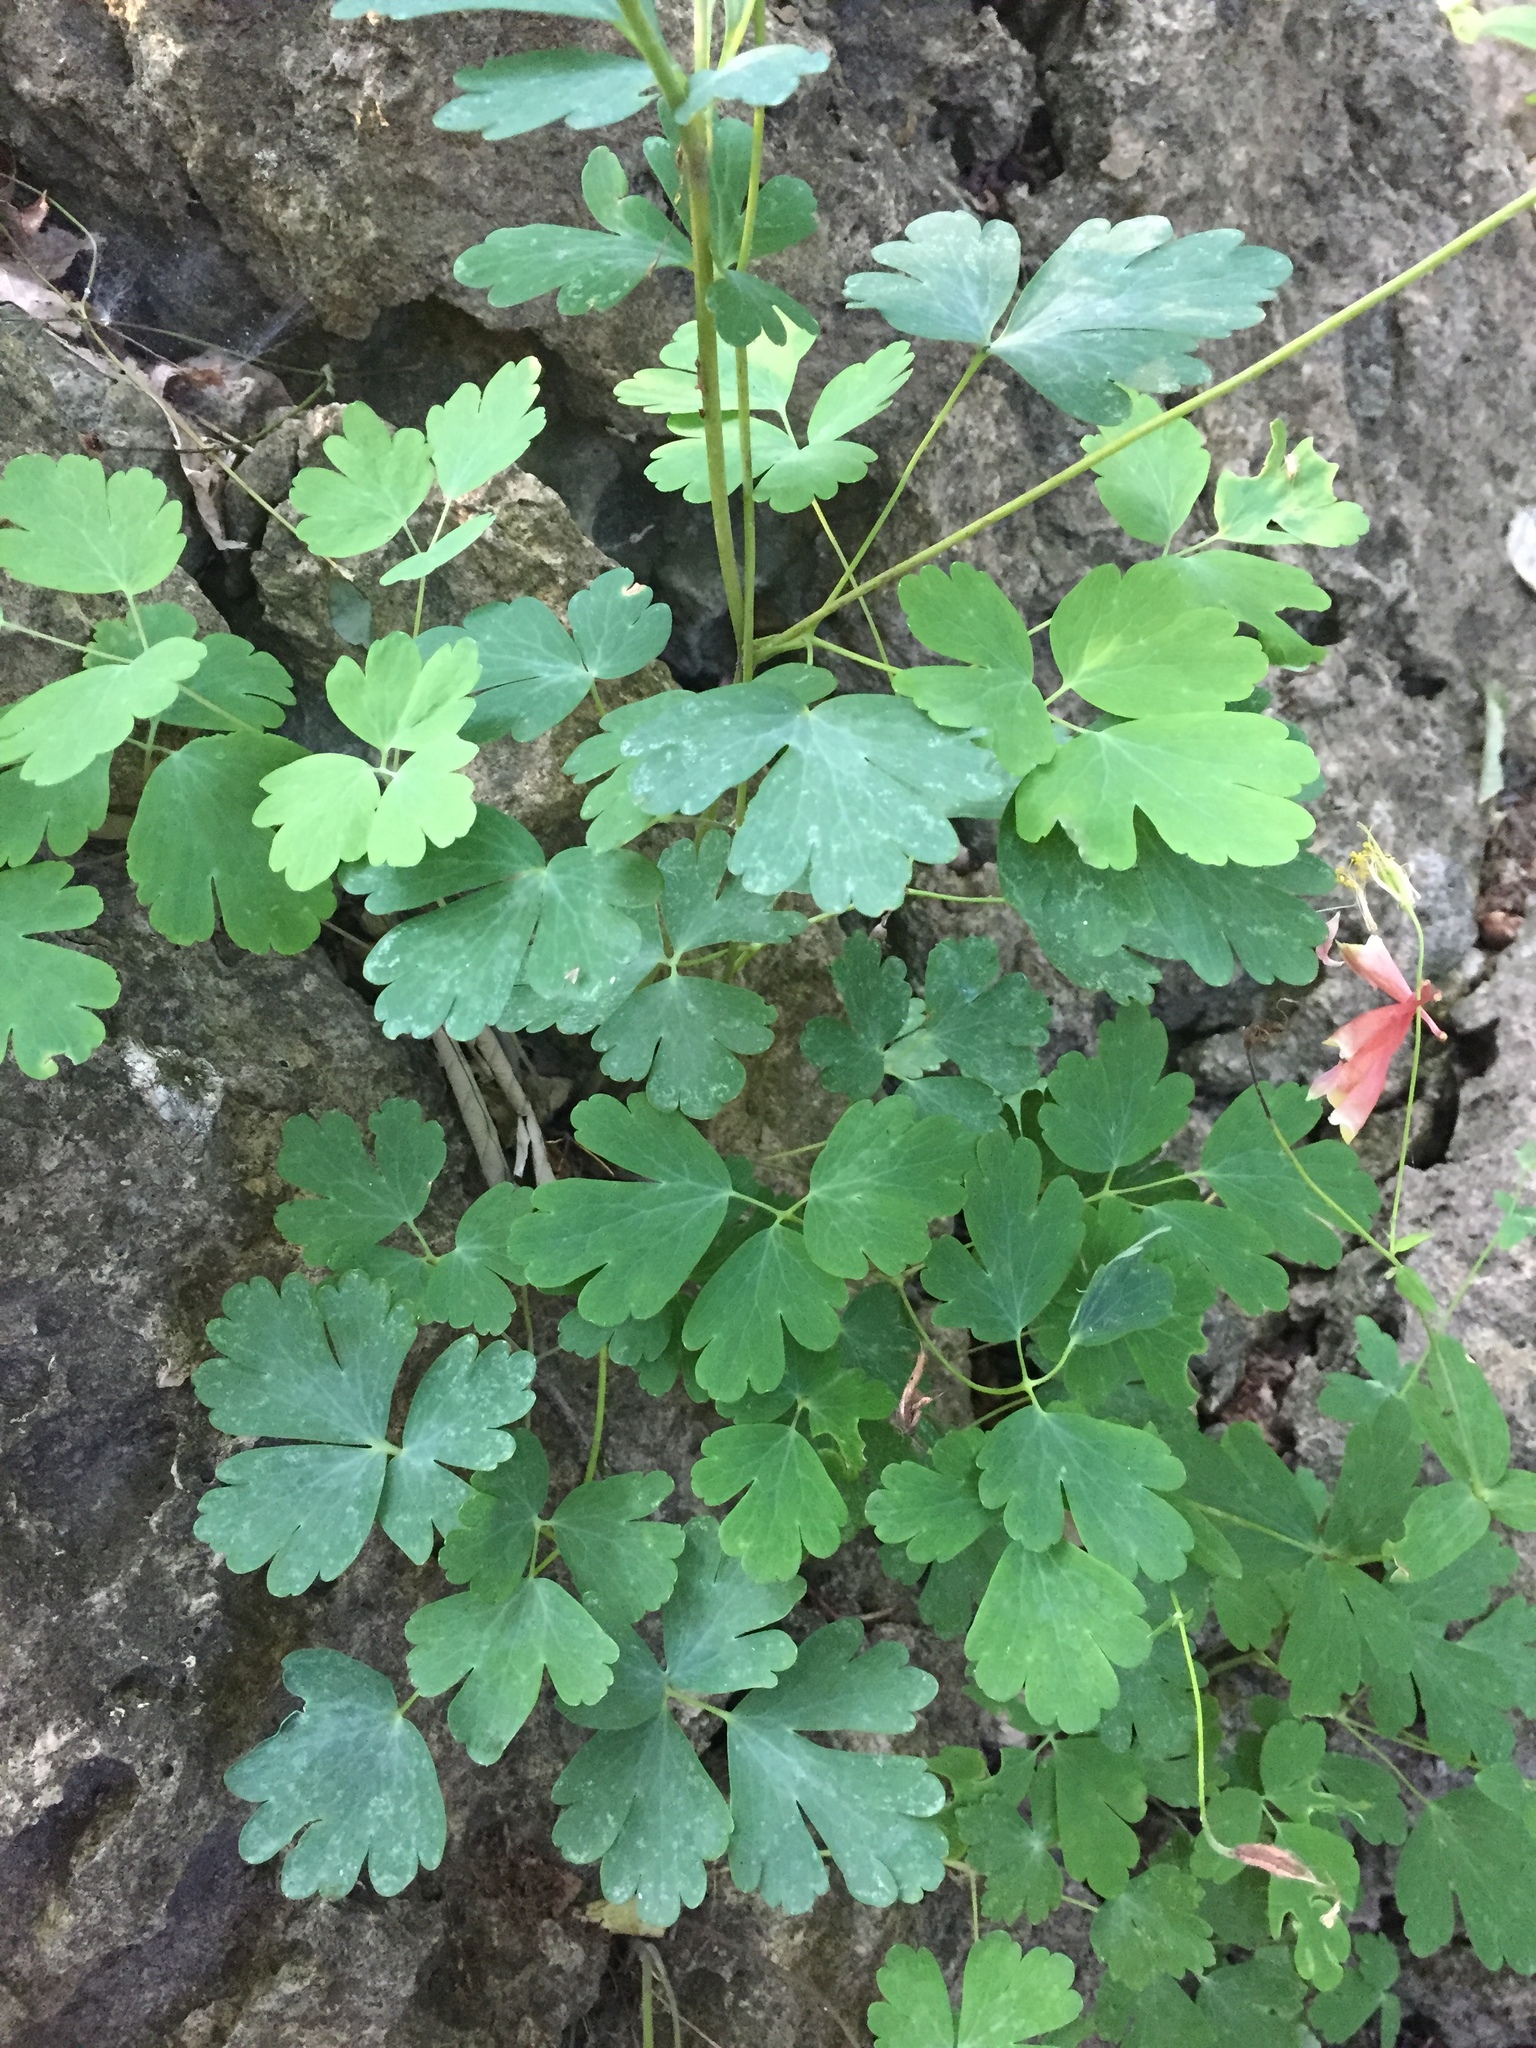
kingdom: Plantae
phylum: Tracheophyta
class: Magnoliopsida
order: Ranunculales
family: Ranunculaceae
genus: Aquilegia
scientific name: Aquilegia canadensis
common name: American columbine
